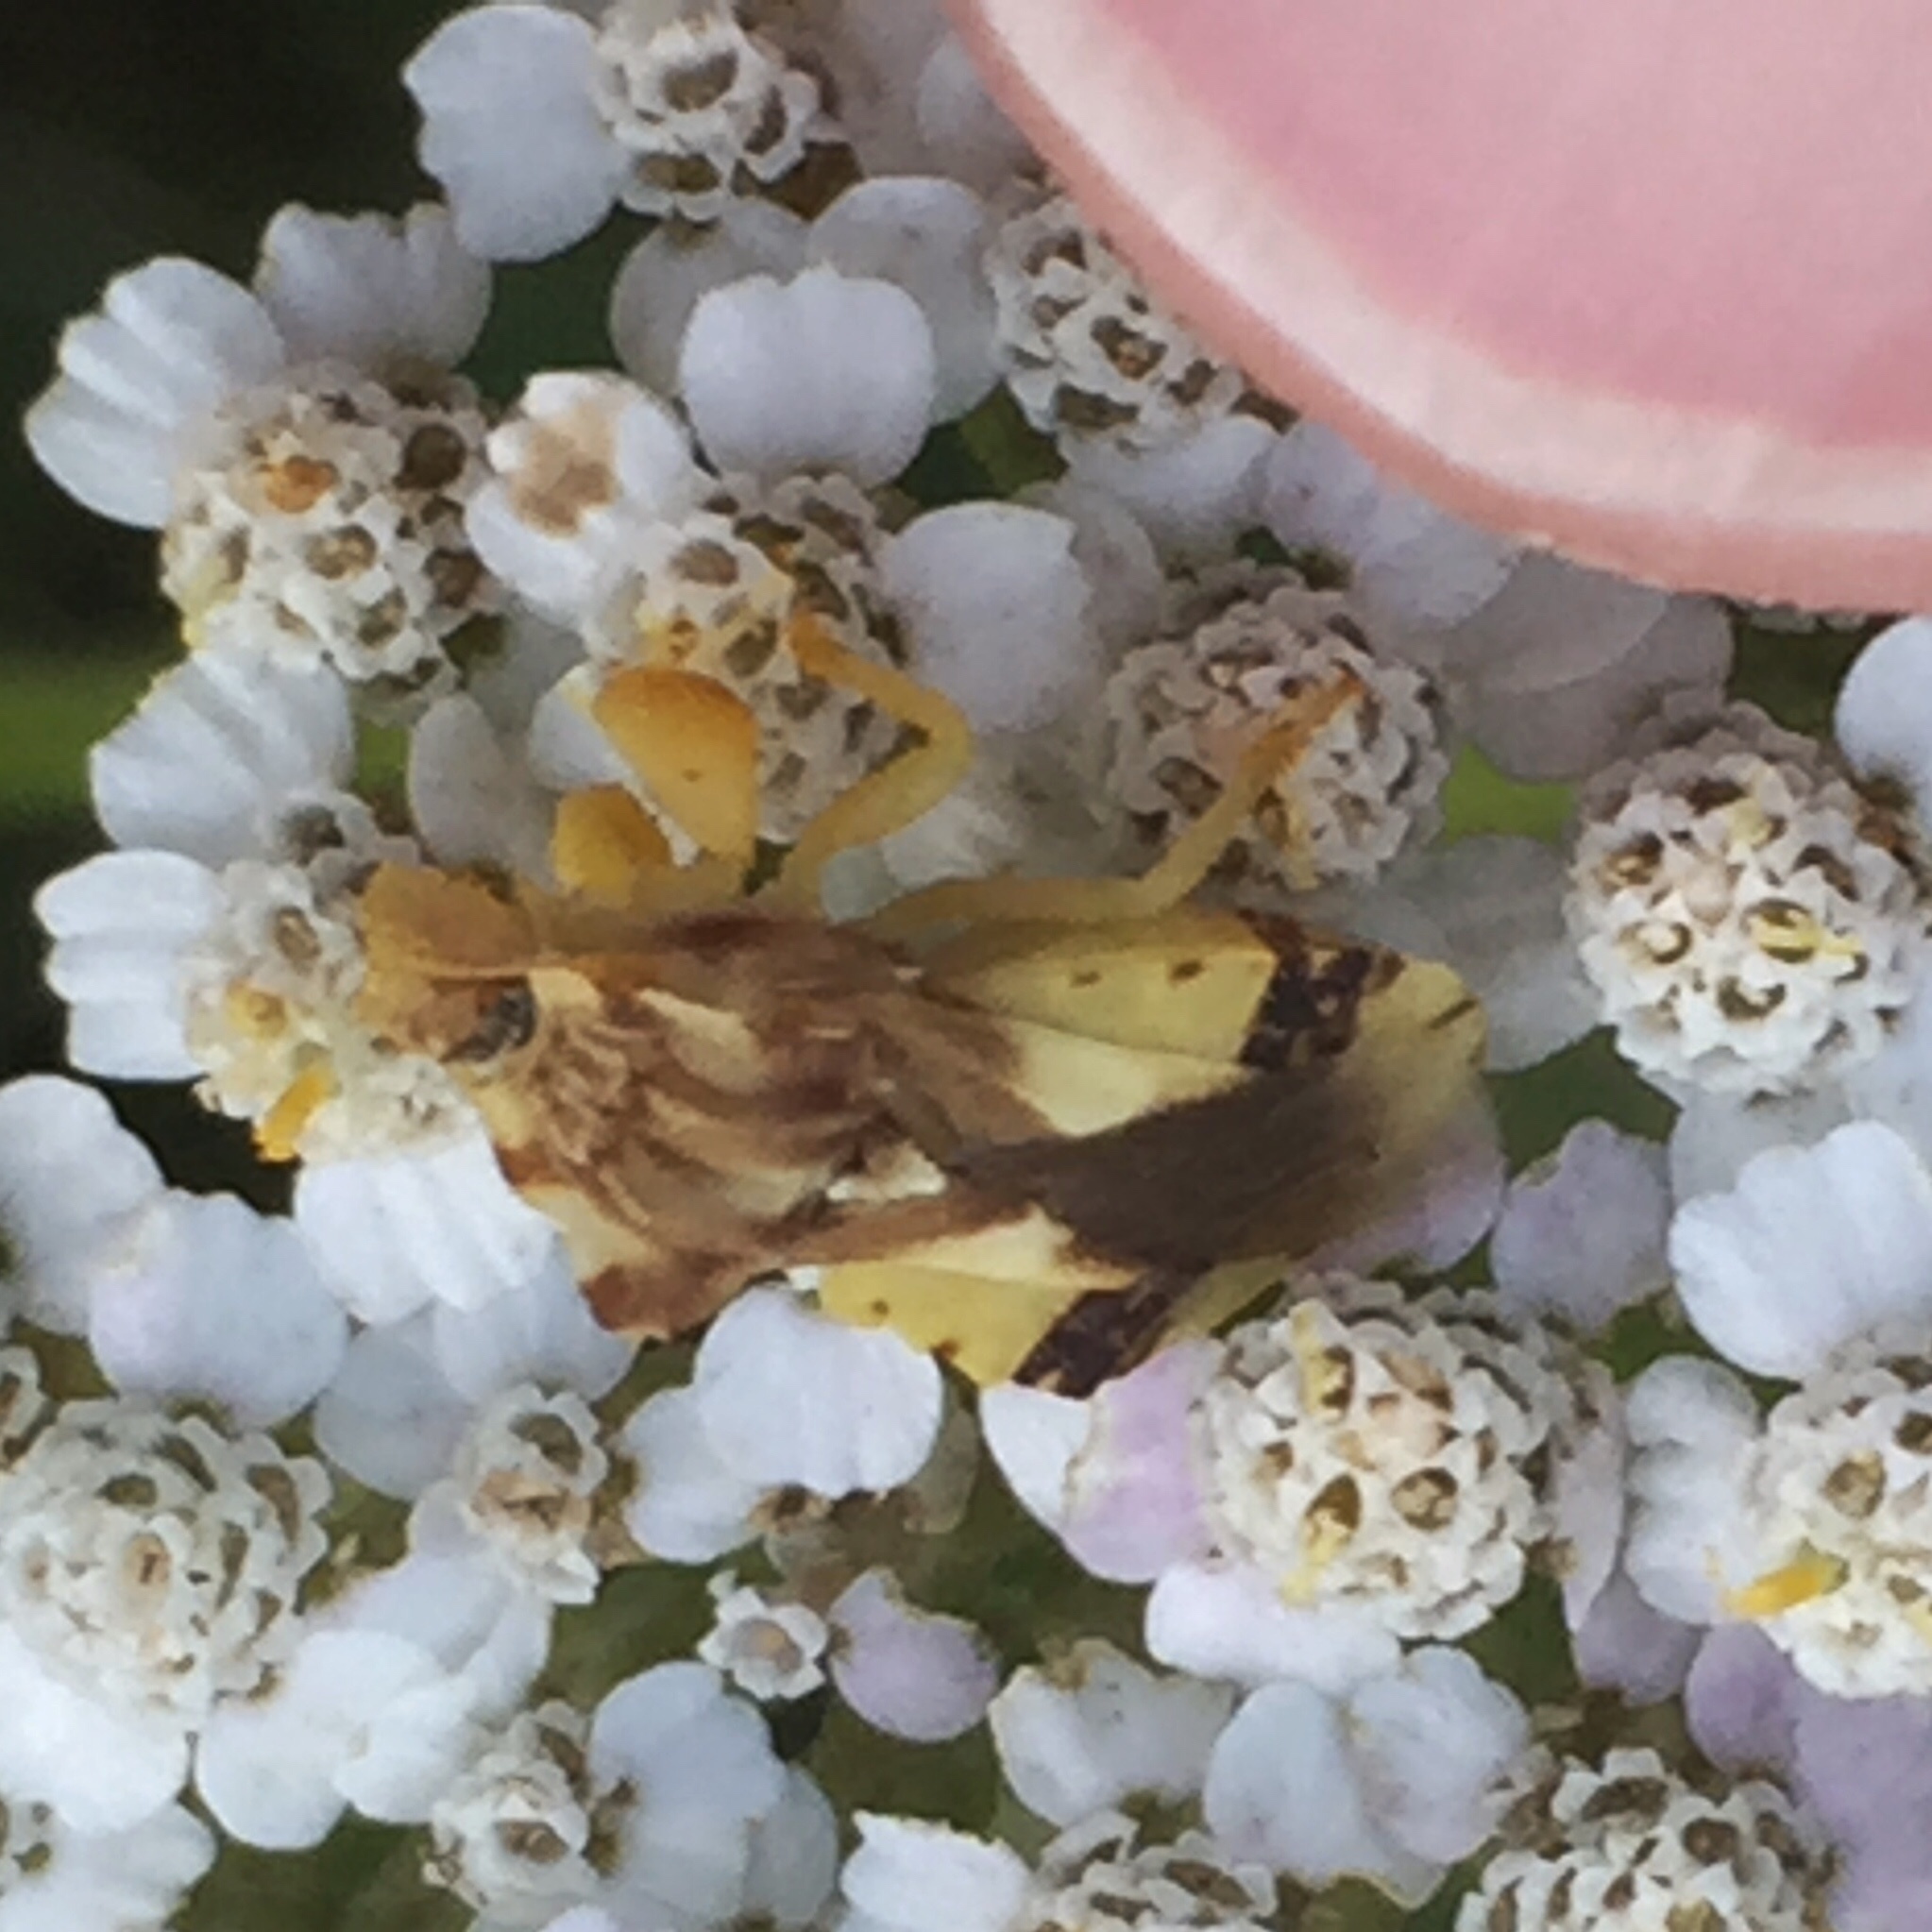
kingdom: Animalia
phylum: Arthropoda
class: Insecta
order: Hemiptera
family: Reduviidae
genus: Phymata
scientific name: Phymata americana
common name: Jagged ambush bug
